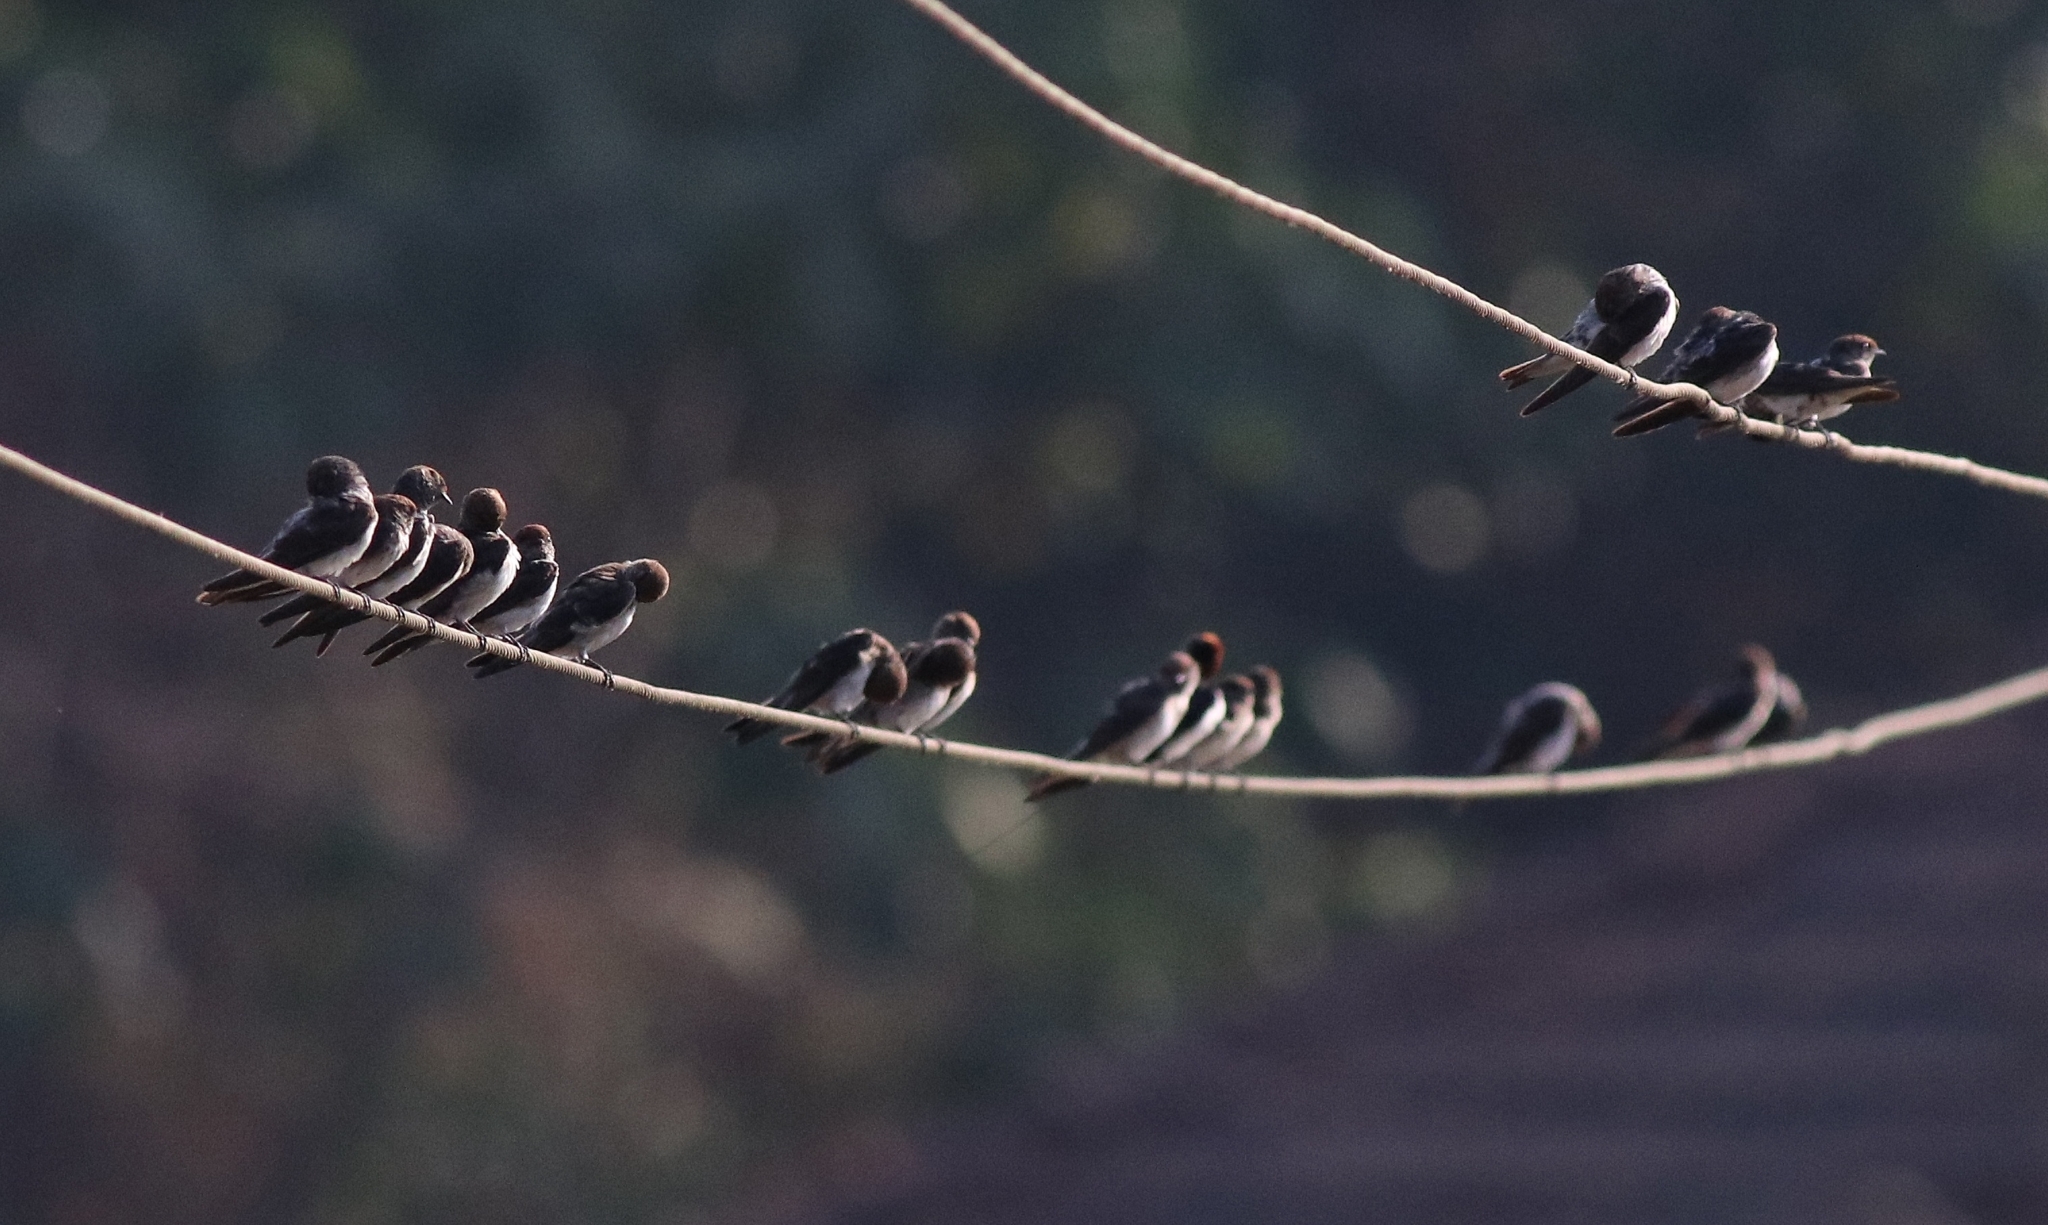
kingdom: Animalia
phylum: Chordata
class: Aves
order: Passeriformes
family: Hirundinidae
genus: Petrochelidon
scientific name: Petrochelidon fluvicola
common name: Streak-throated swallow
